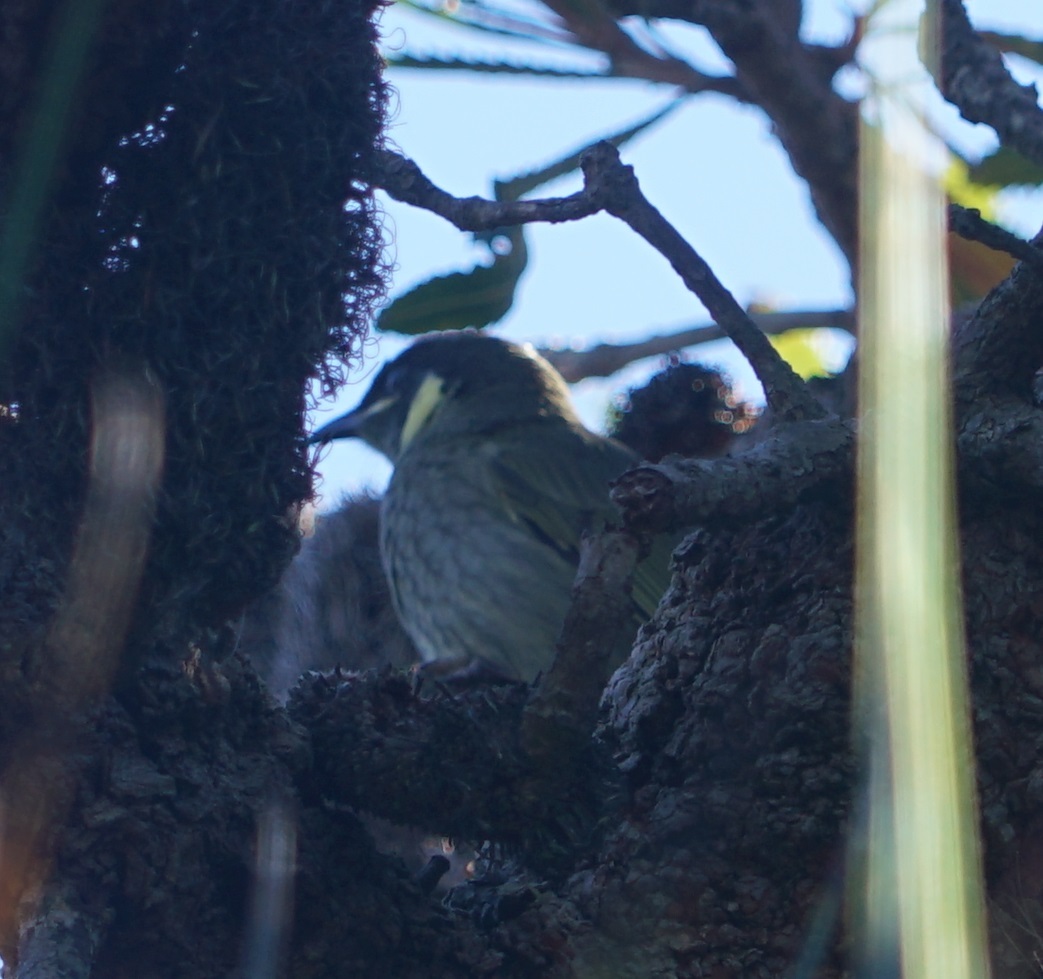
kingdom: Animalia
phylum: Chordata
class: Aves
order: Passeriformes
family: Meliphagidae
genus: Meliphaga
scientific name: Meliphaga lewinii
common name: Lewin's honeyeater
